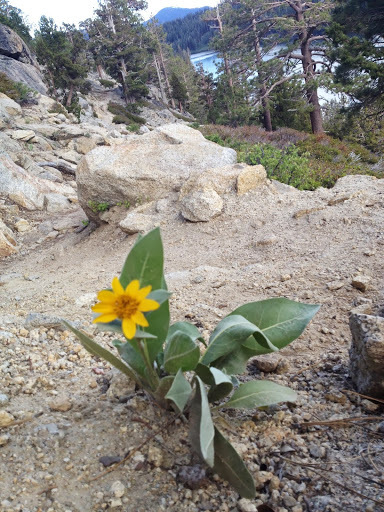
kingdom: Plantae
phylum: Tracheophyta
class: Magnoliopsida
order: Asterales
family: Asteraceae
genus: Wyethia
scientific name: Wyethia mollis
